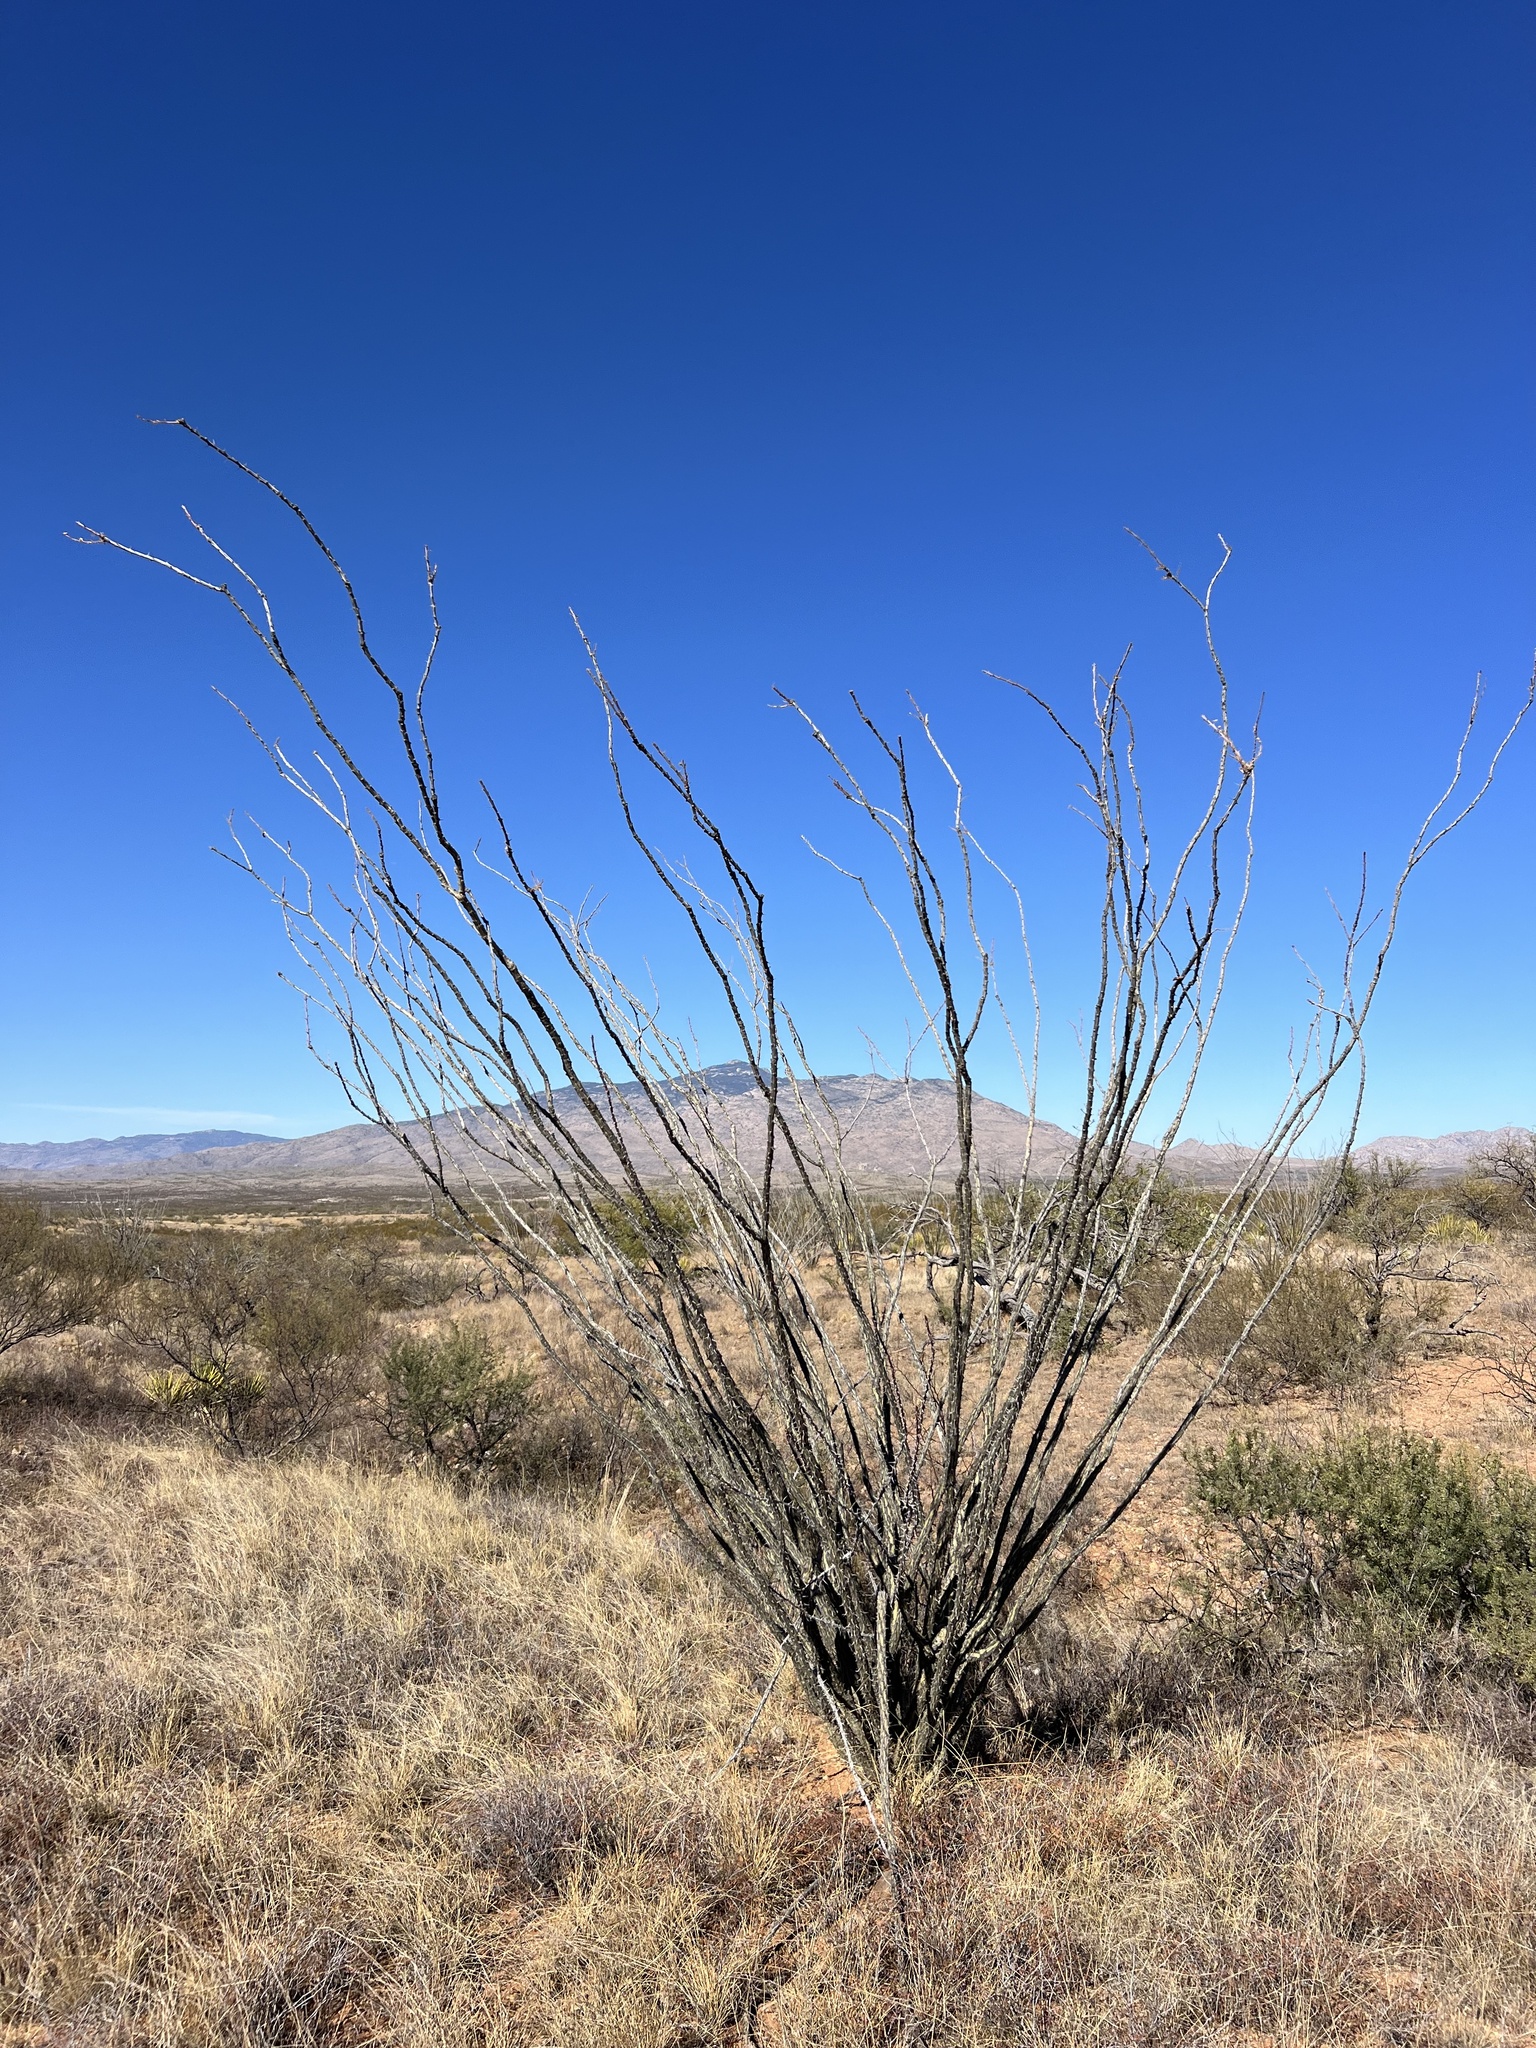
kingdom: Plantae
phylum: Tracheophyta
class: Magnoliopsida
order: Ericales
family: Fouquieriaceae
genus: Fouquieria
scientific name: Fouquieria splendens
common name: Vine-cactus
